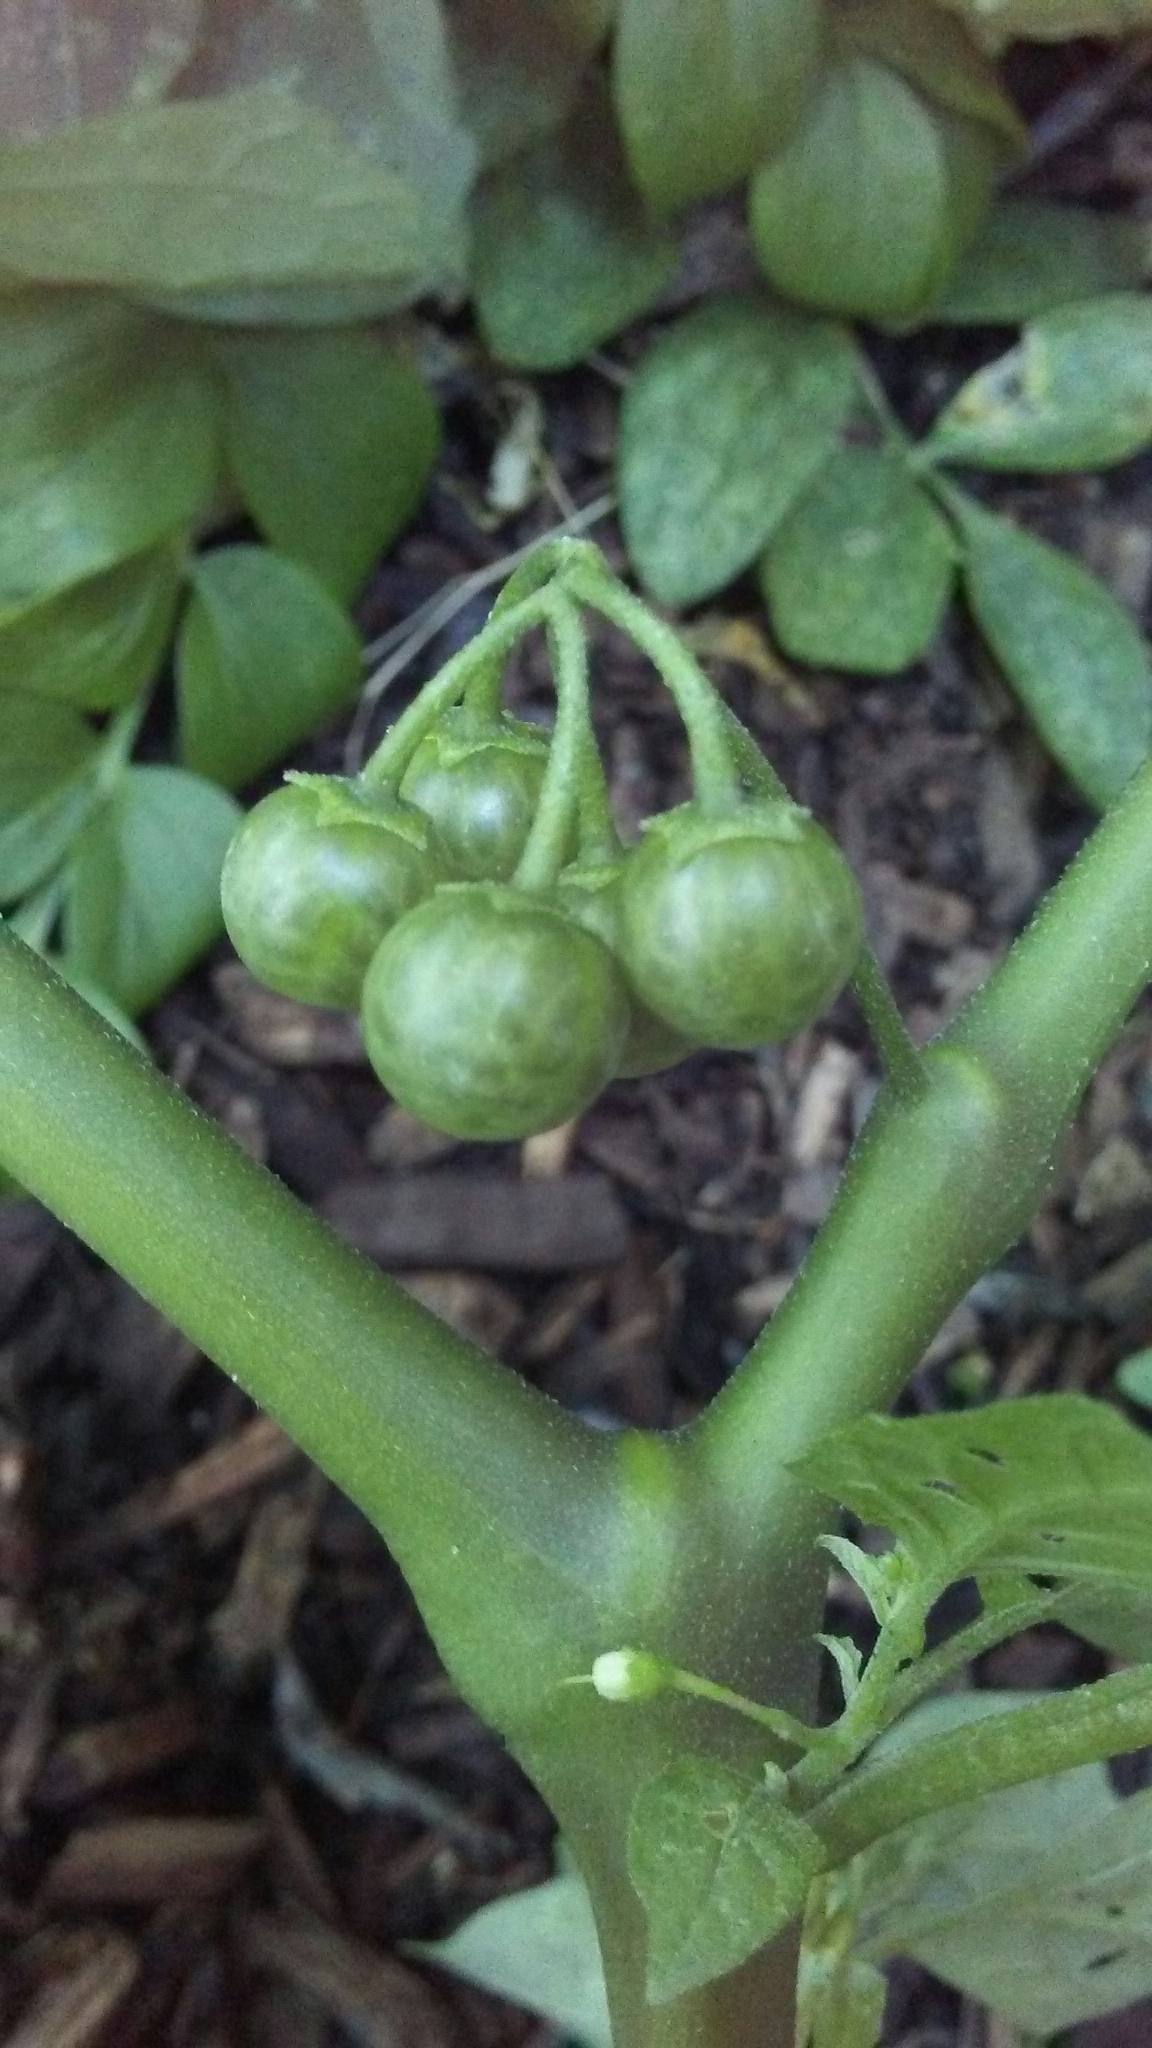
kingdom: Plantae
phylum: Tracheophyta
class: Magnoliopsida
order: Solanales
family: Solanaceae
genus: Solanum
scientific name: Solanum emulans
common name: Eastern black nightshade
